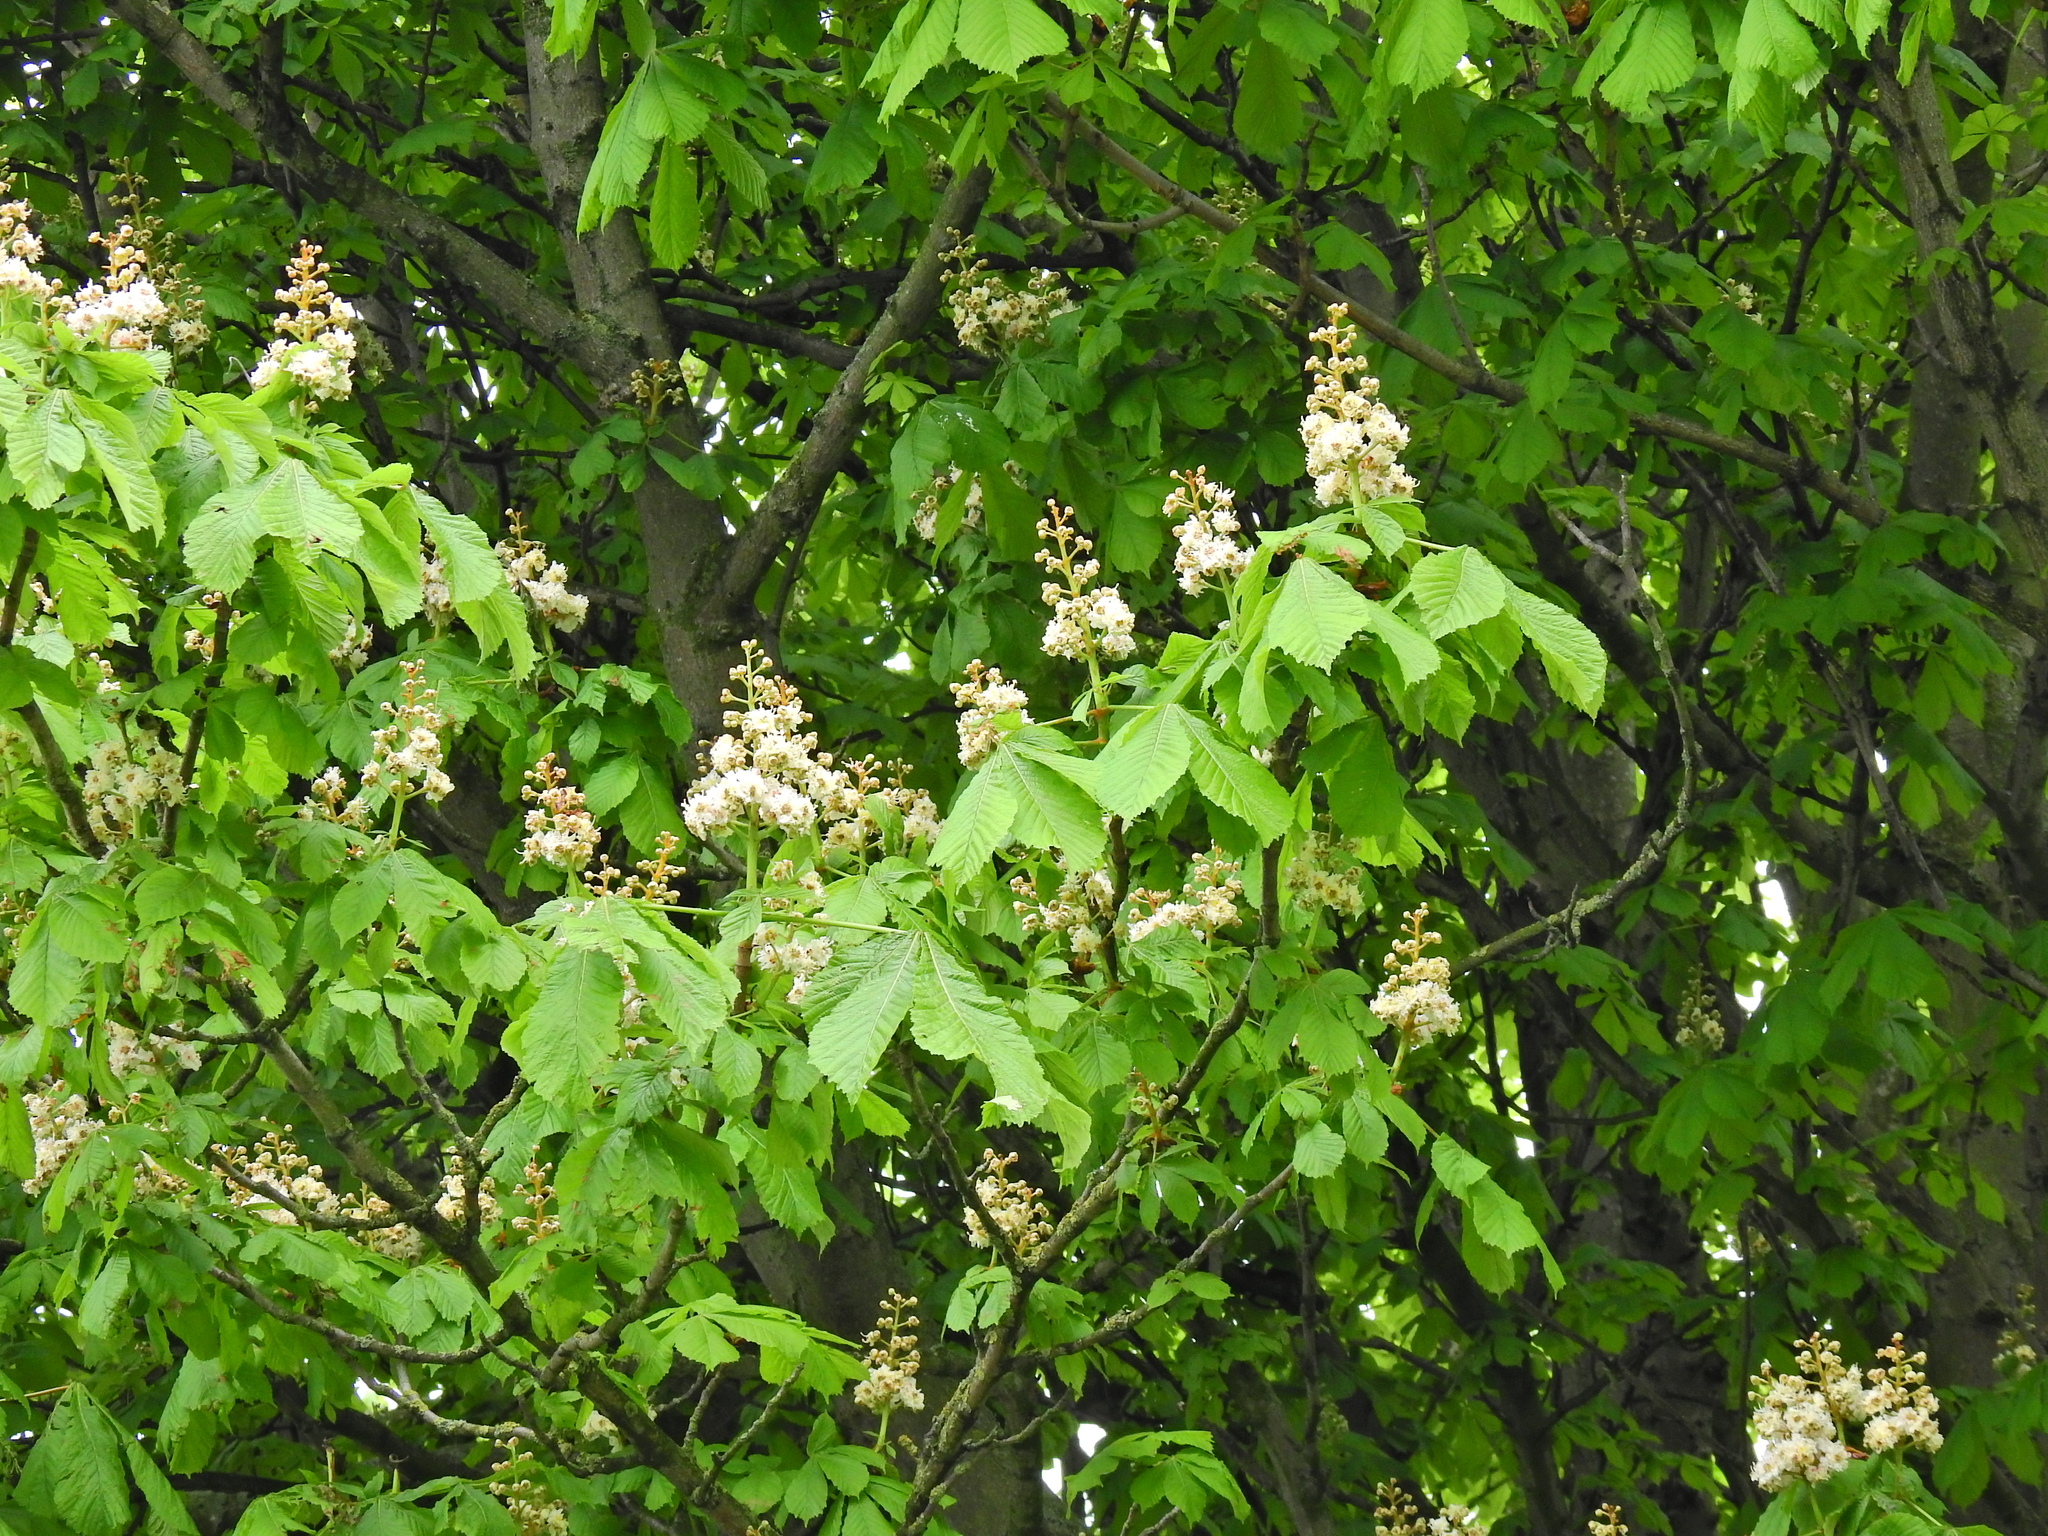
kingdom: Plantae
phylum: Tracheophyta
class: Magnoliopsida
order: Sapindales
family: Sapindaceae
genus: Aesculus
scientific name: Aesculus hippocastanum
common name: Horse-chestnut
